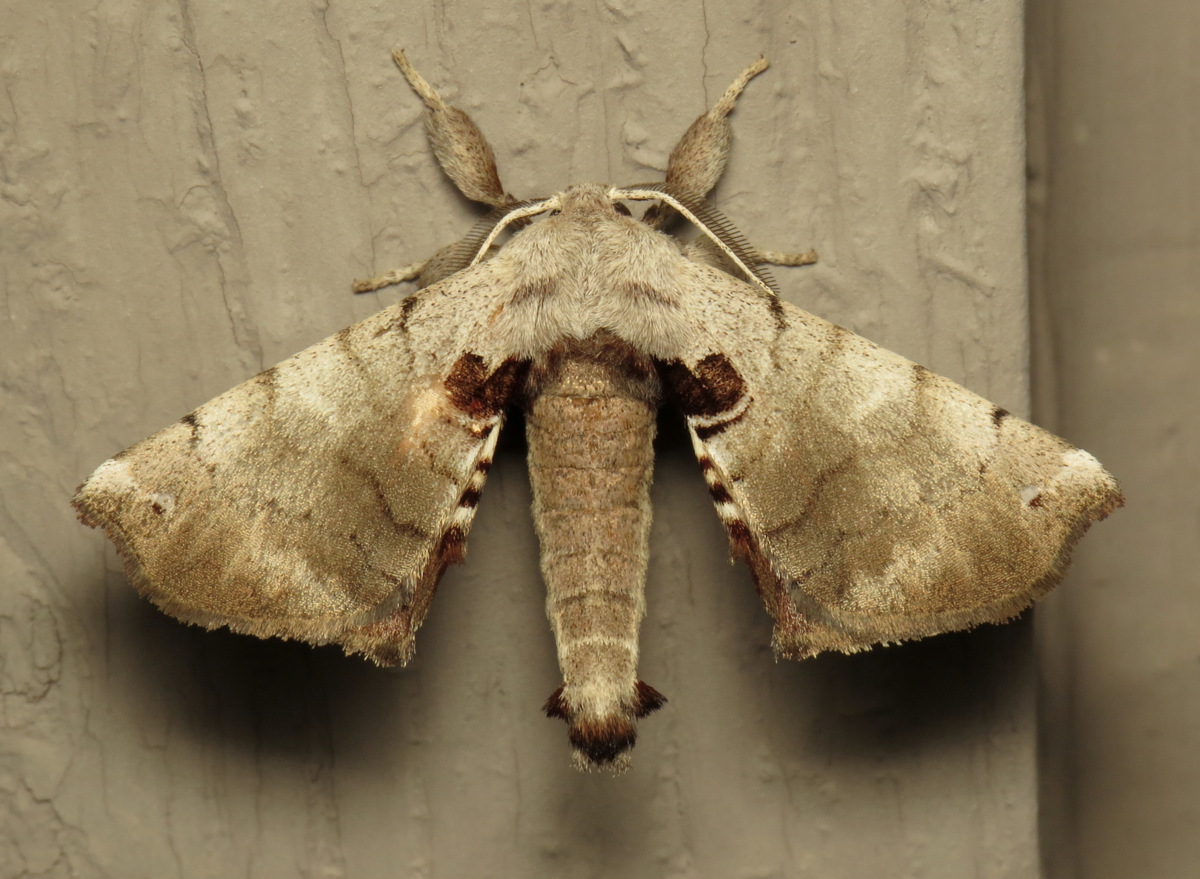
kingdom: Animalia
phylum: Arthropoda
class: Insecta
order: Lepidoptera
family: Apatelodidae
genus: Hygrochroa
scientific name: Hygrochroa Apatelodes torrefacta
